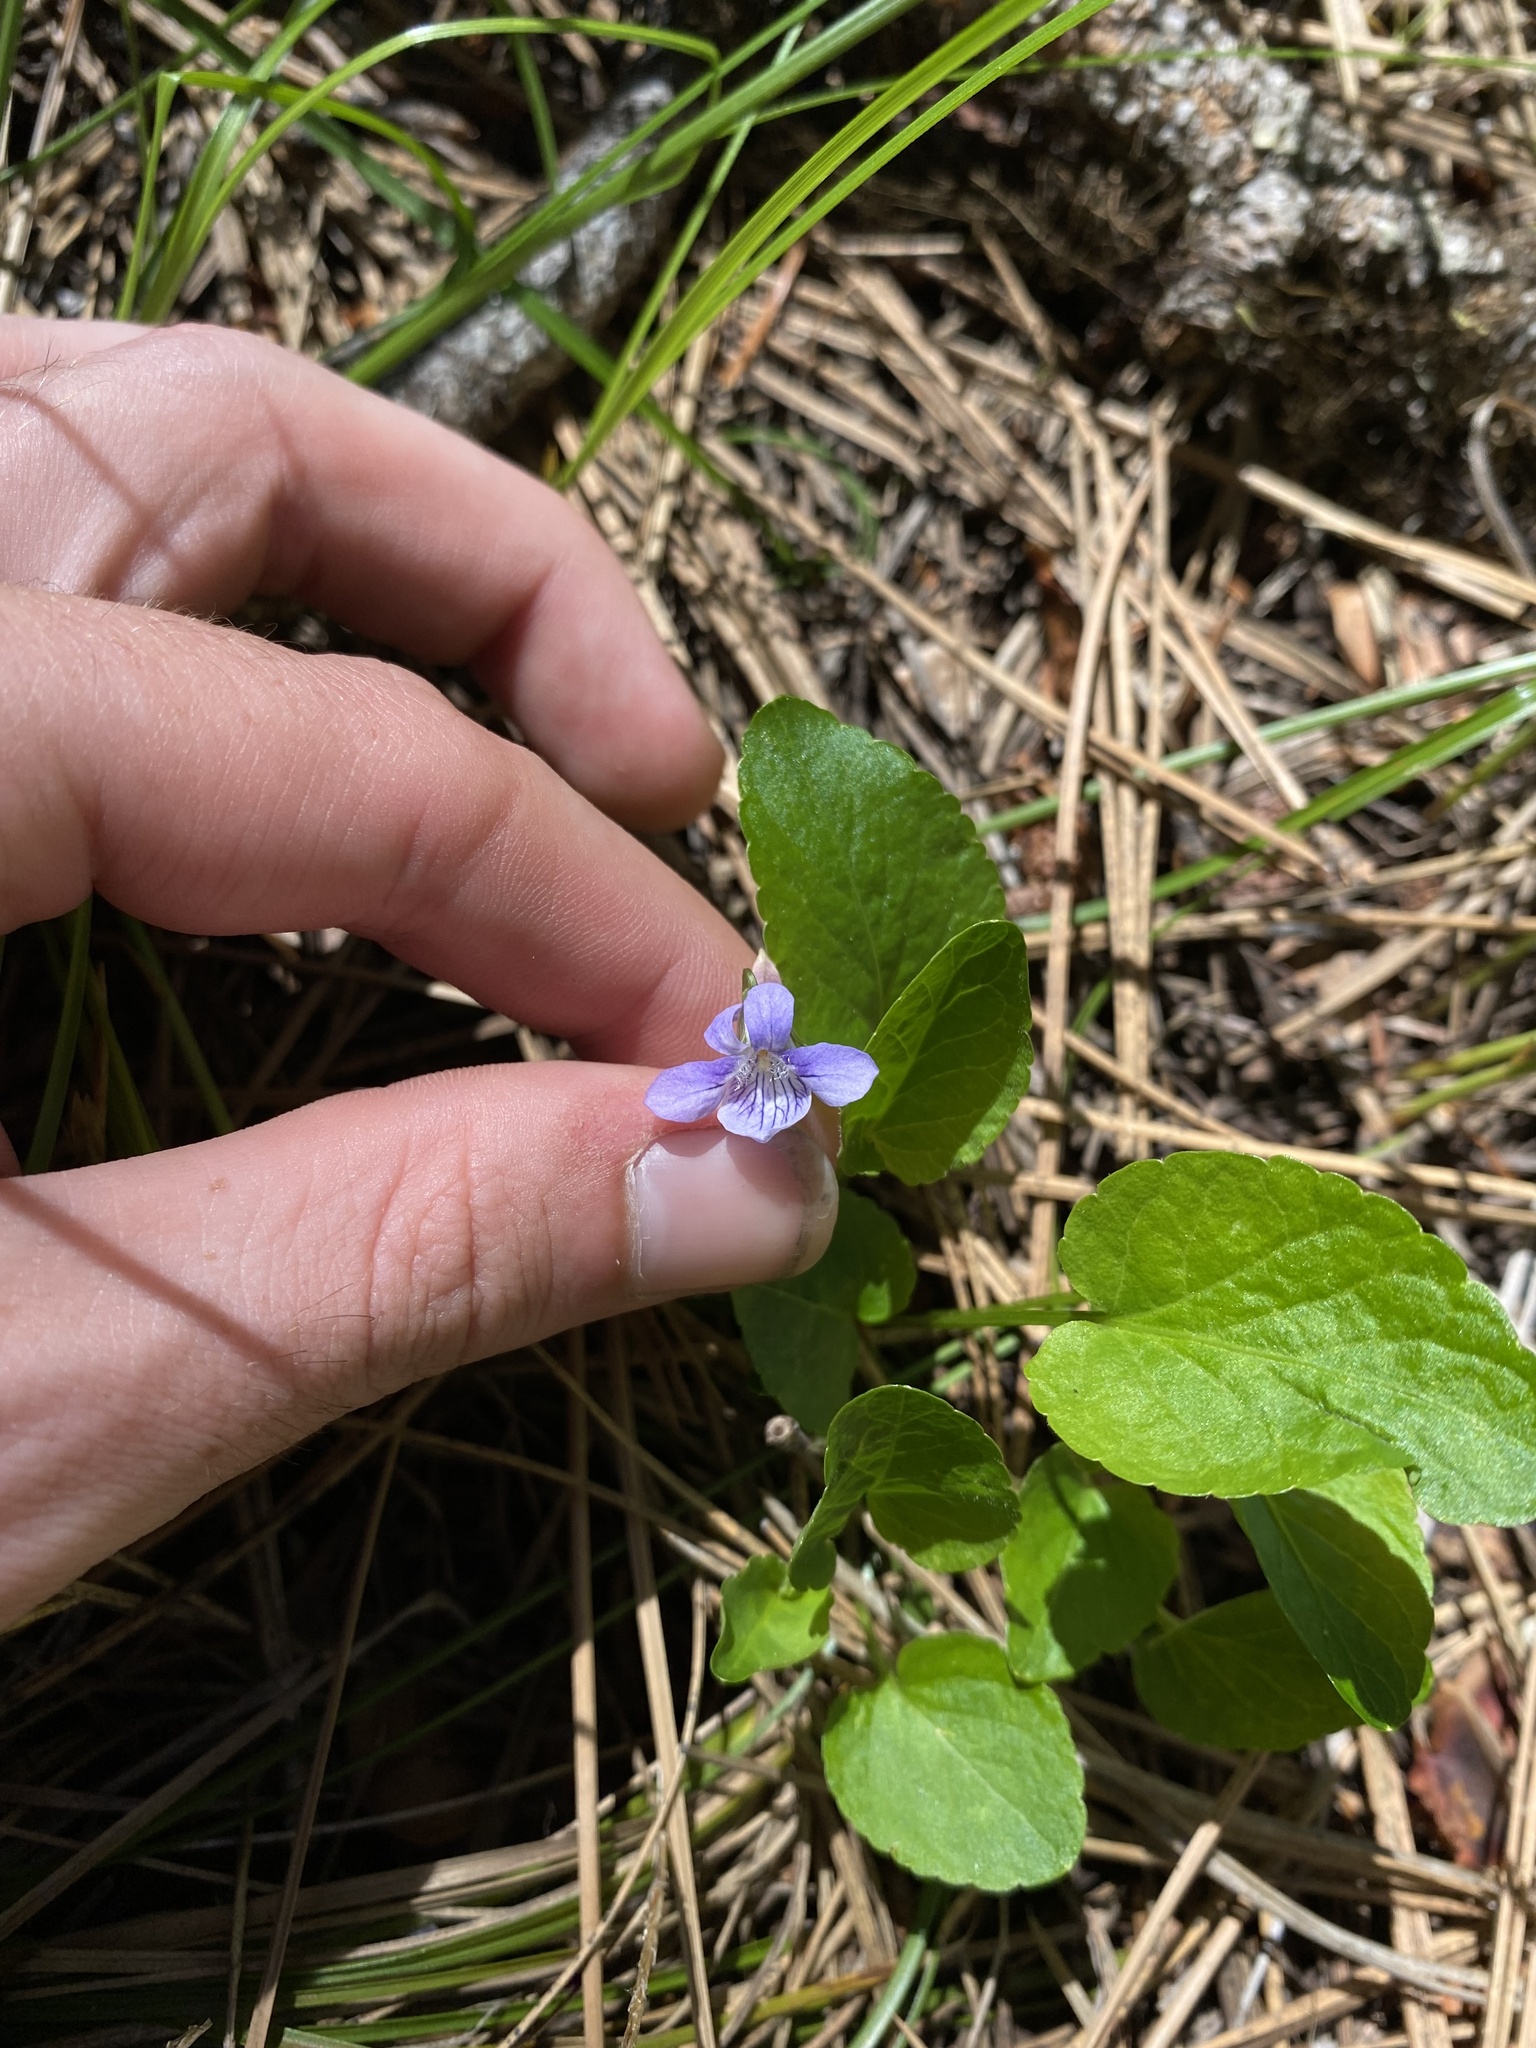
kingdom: Plantae
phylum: Tracheophyta
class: Magnoliopsida
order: Malpighiales
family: Violaceae
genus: Viola
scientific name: Viola adunca
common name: Sand violet
